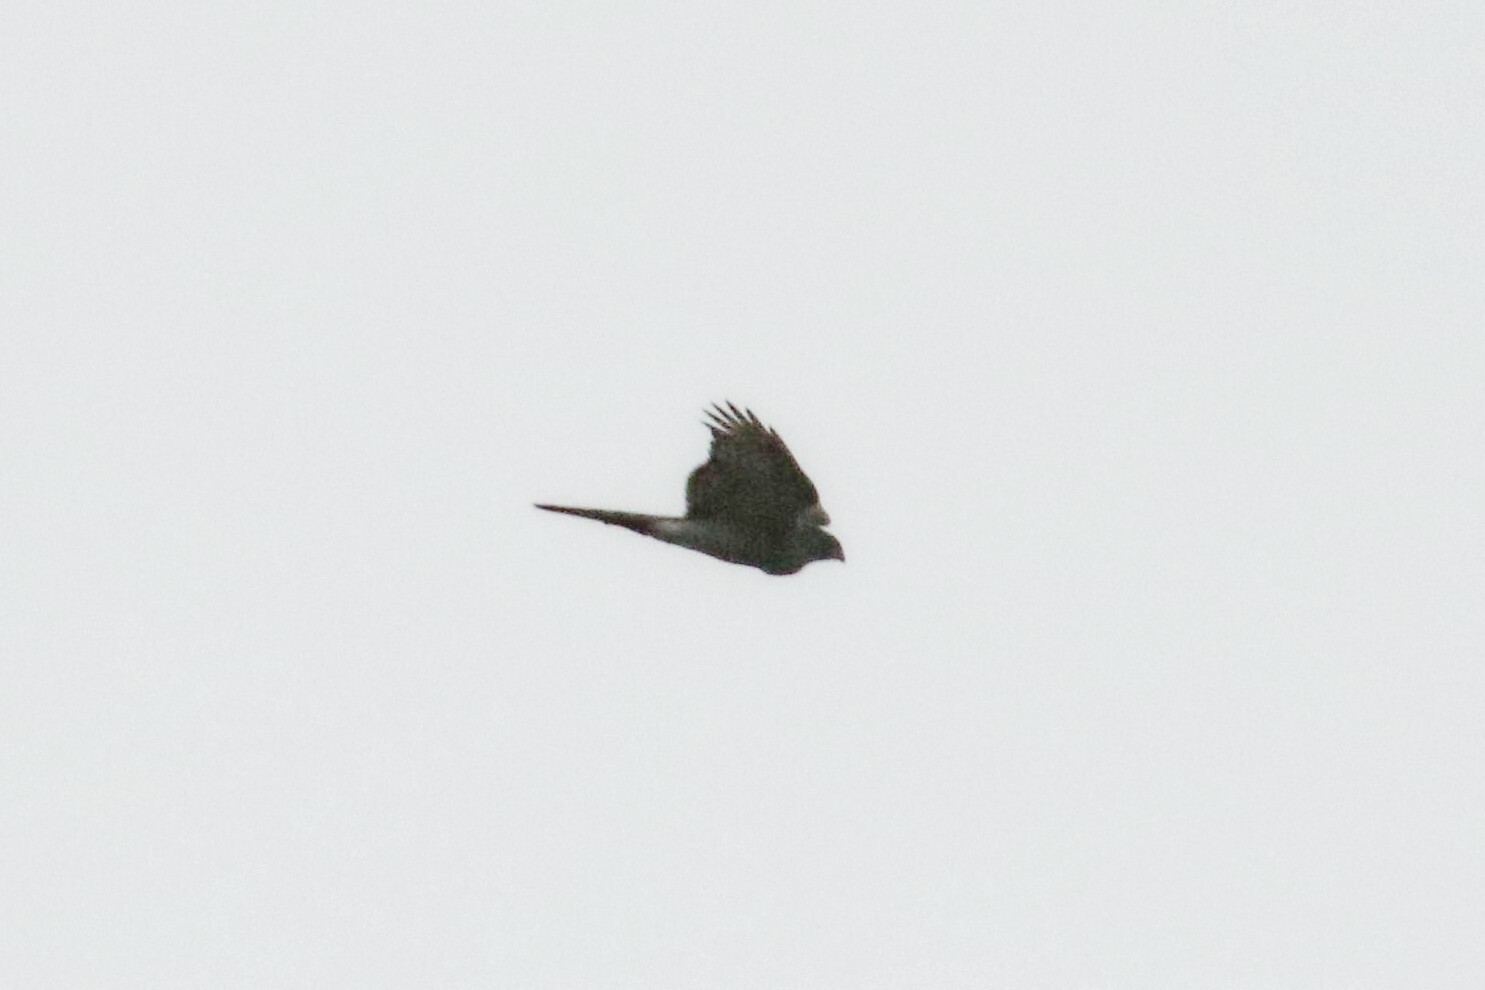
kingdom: Animalia
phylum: Chordata
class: Aves
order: Accipitriformes
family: Accipitridae
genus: Accipiter
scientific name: Accipiter nisus
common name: Eurasian sparrowhawk
